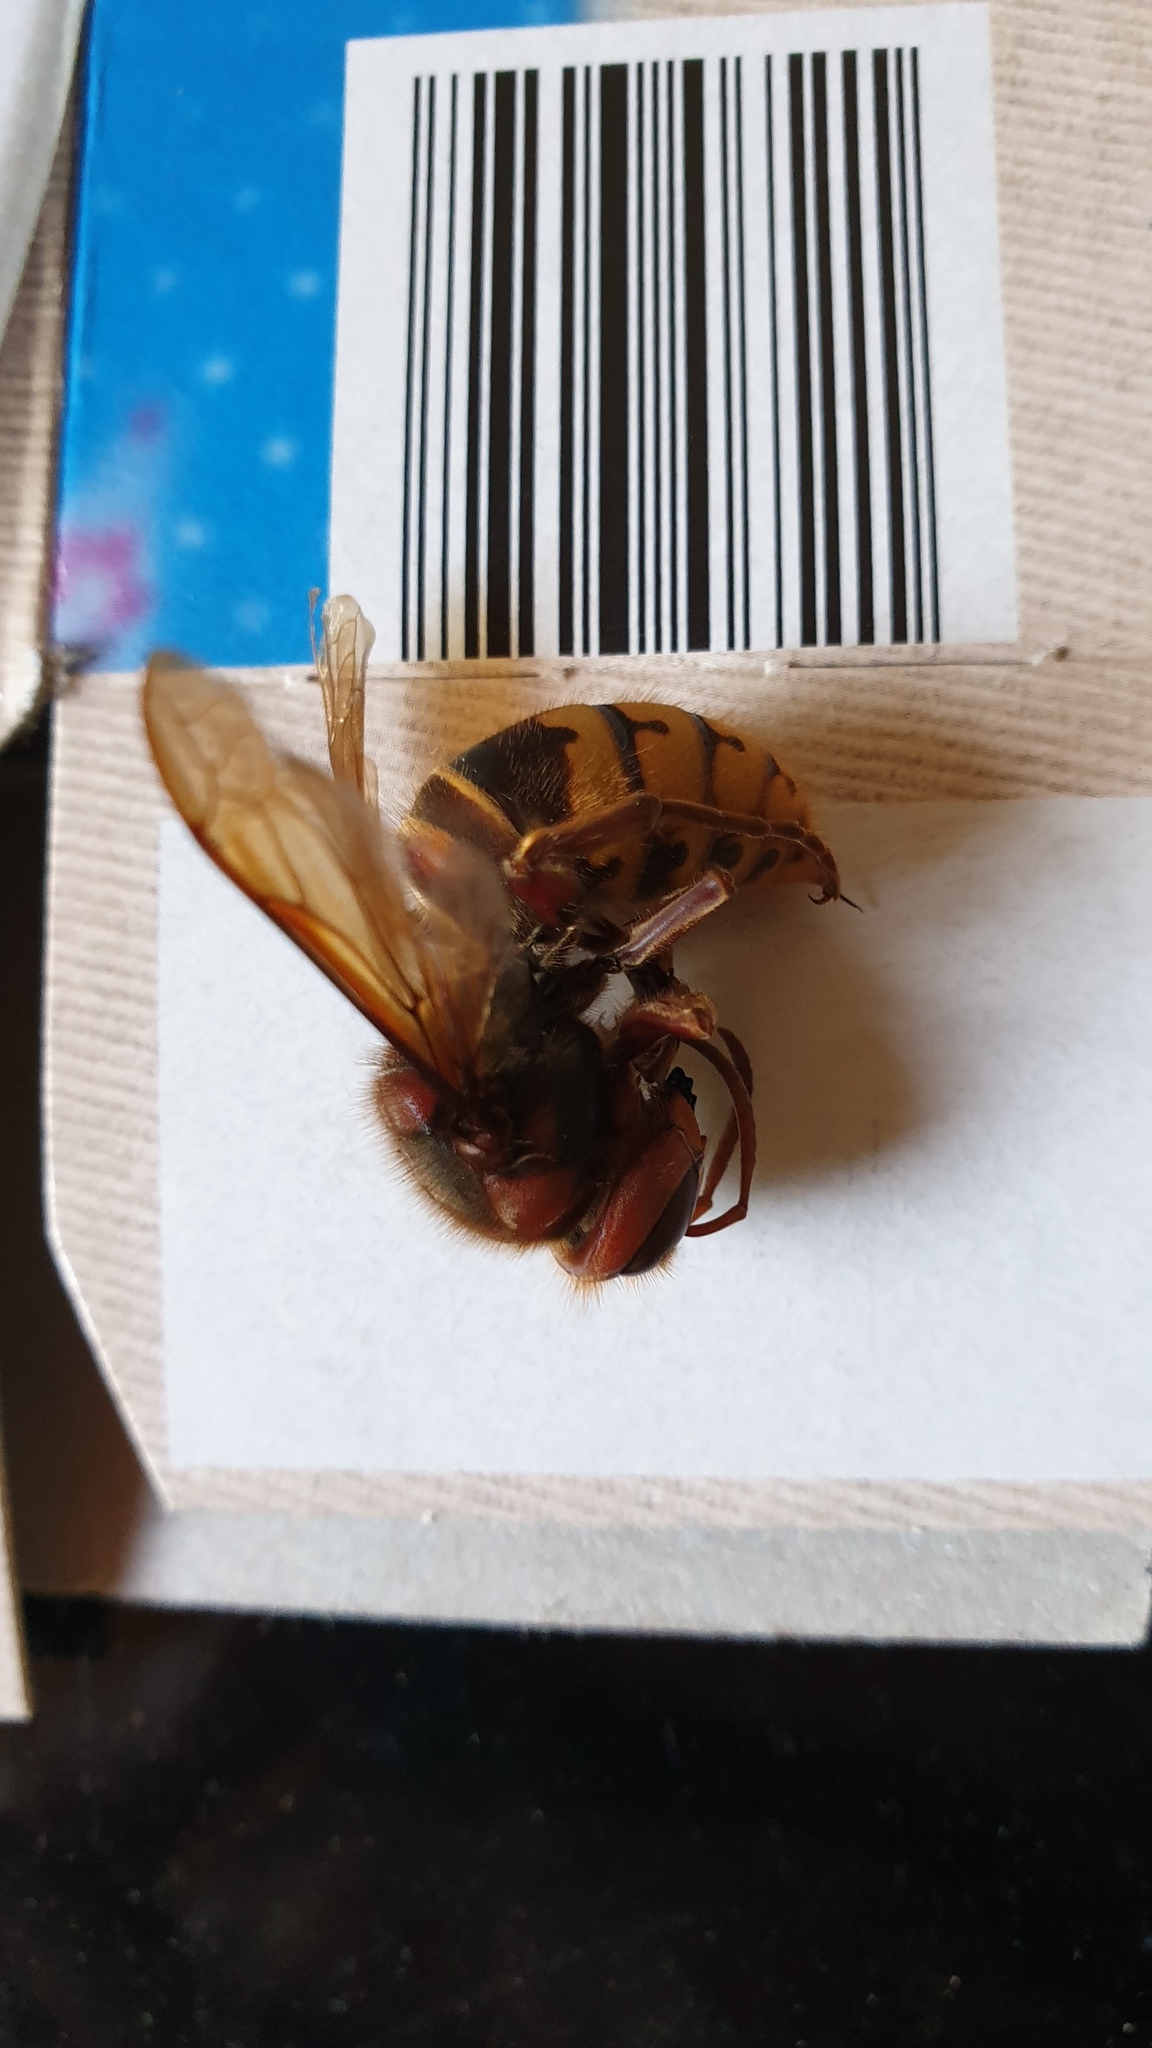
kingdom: Animalia
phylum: Arthropoda
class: Insecta
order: Hymenoptera
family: Vespidae
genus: Vespa
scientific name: Vespa crabro
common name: Hornet
